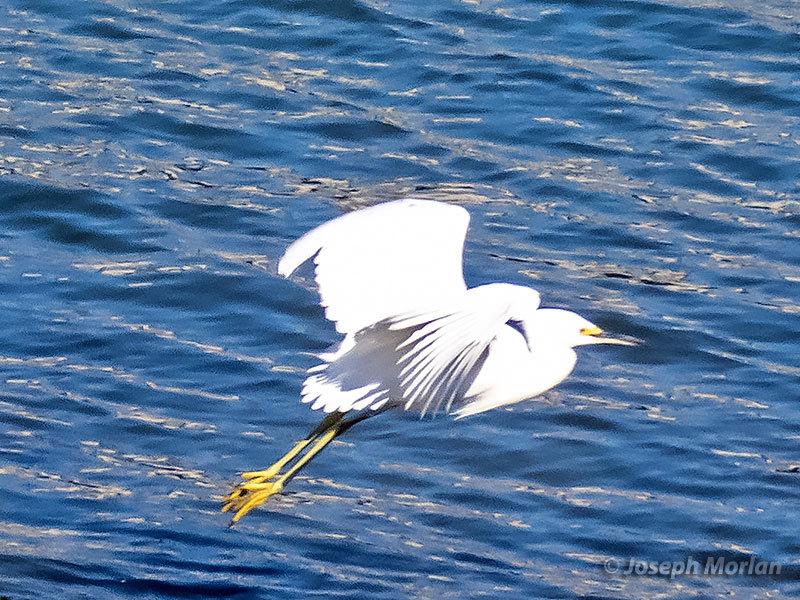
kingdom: Animalia
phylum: Chordata
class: Aves
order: Pelecaniformes
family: Ardeidae
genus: Egretta
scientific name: Egretta thula
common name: Snowy egret
